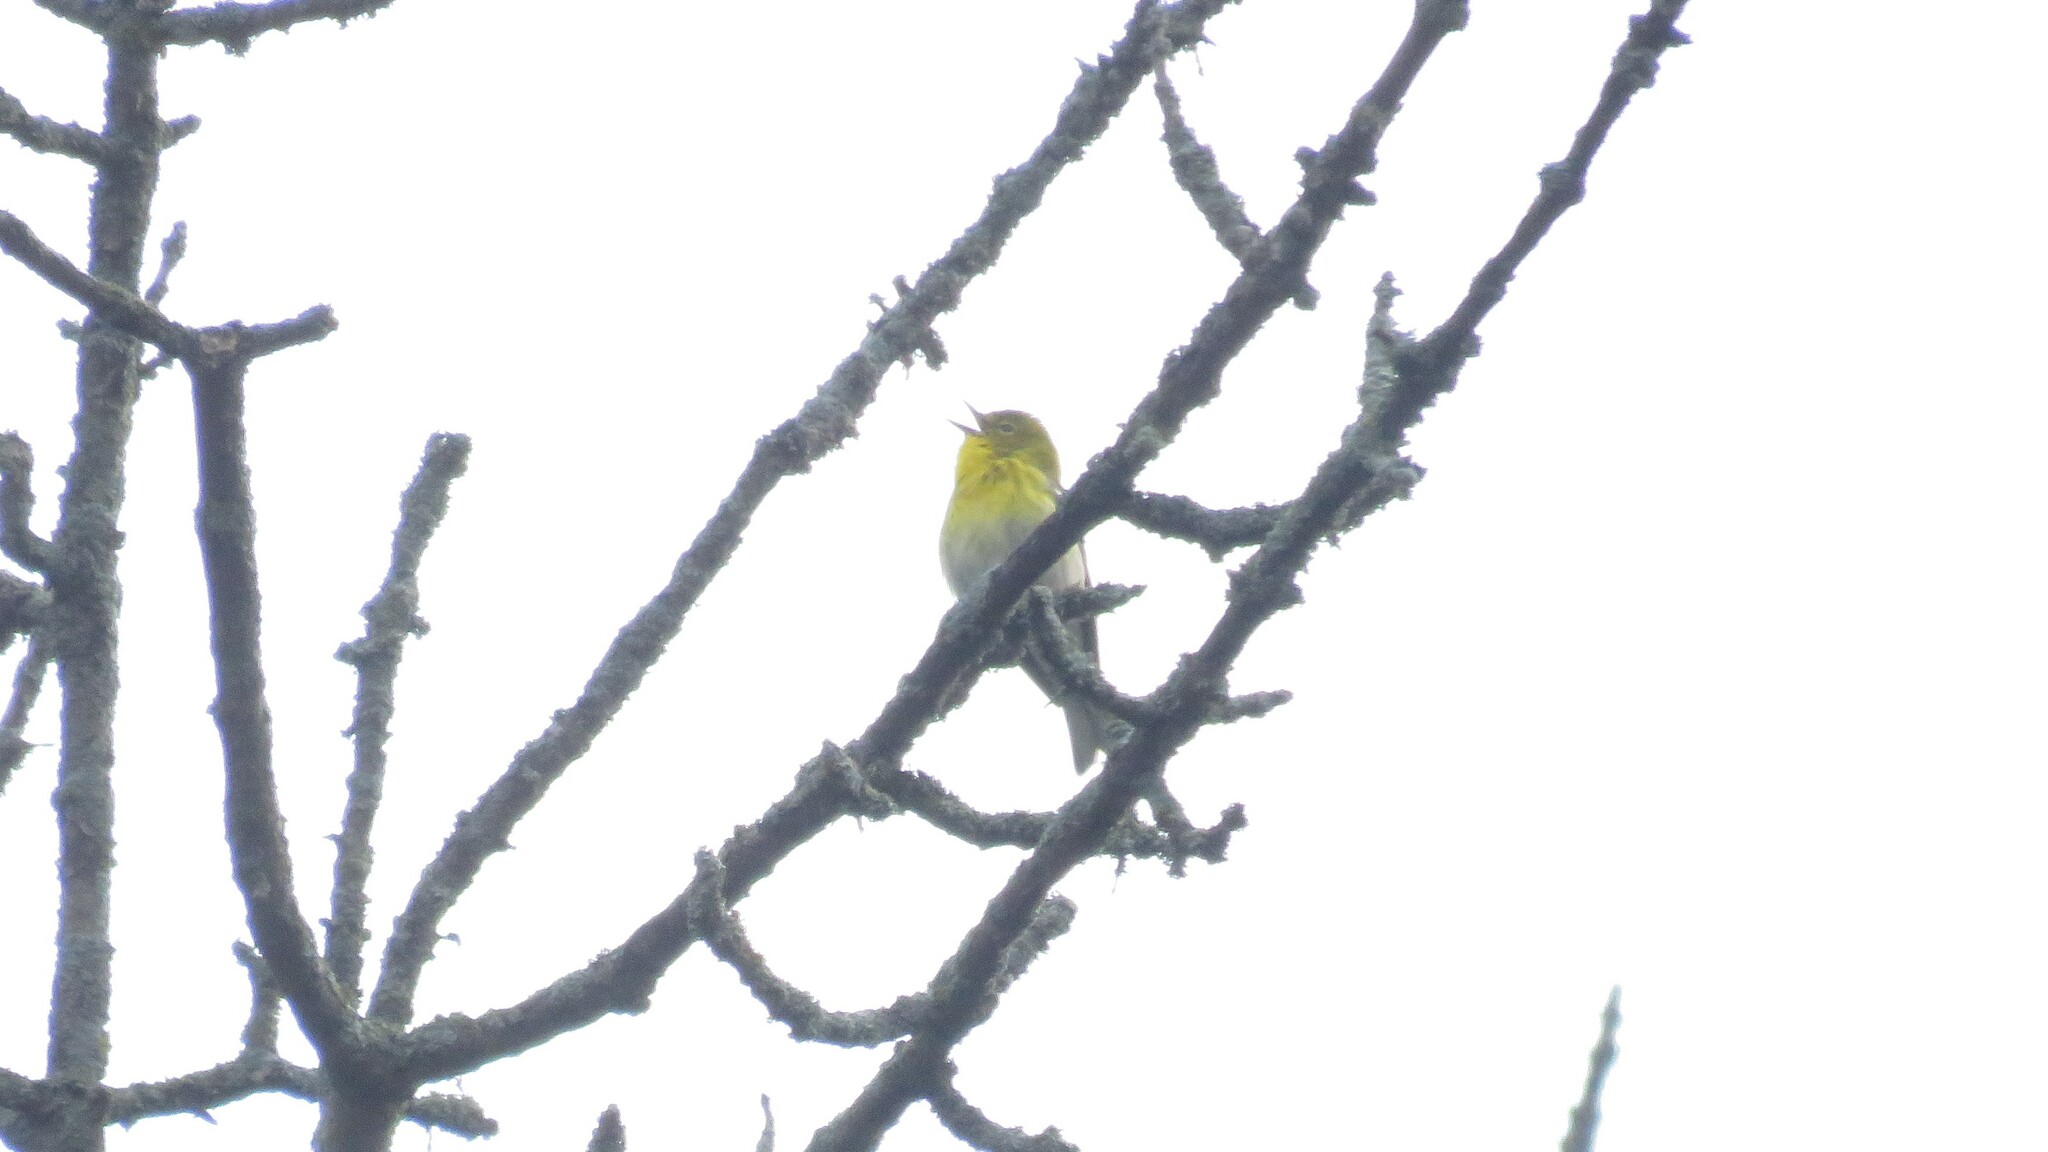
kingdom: Animalia
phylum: Chordata
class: Aves
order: Passeriformes
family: Parulidae
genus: Setophaga
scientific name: Setophaga pinus
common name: Pine warbler
